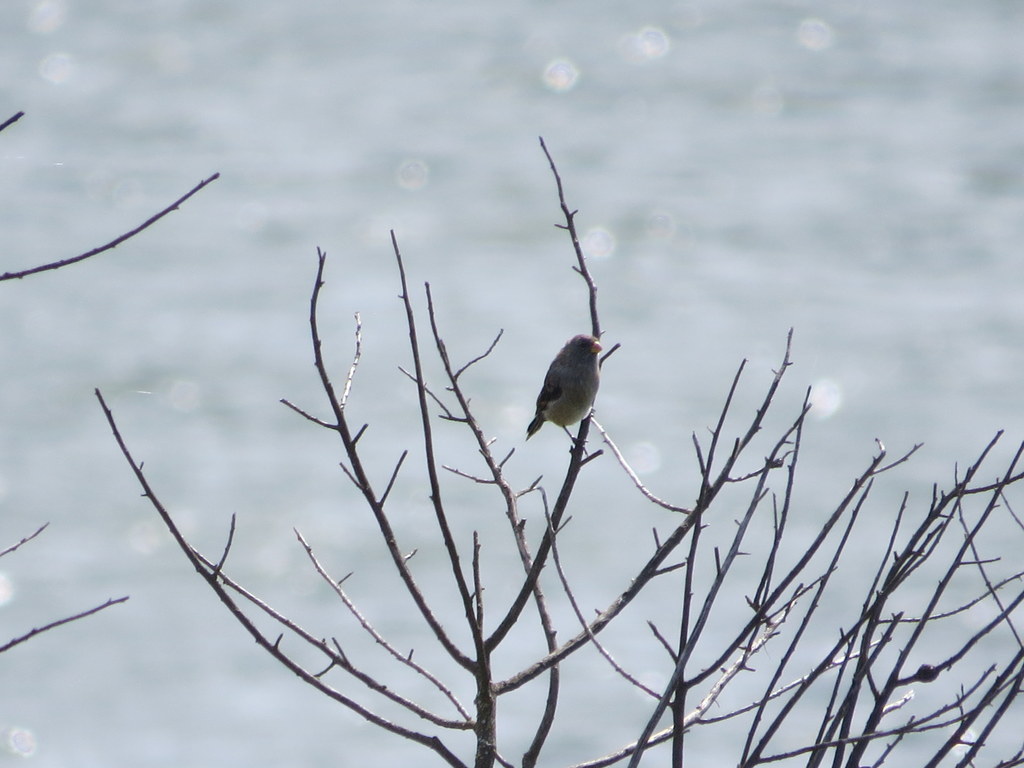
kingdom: Animalia
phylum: Chordata
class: Aves
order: Passeriformes
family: Thraupidae
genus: Catamenia
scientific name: Catamenia analis
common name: Band-tailed seedeater
